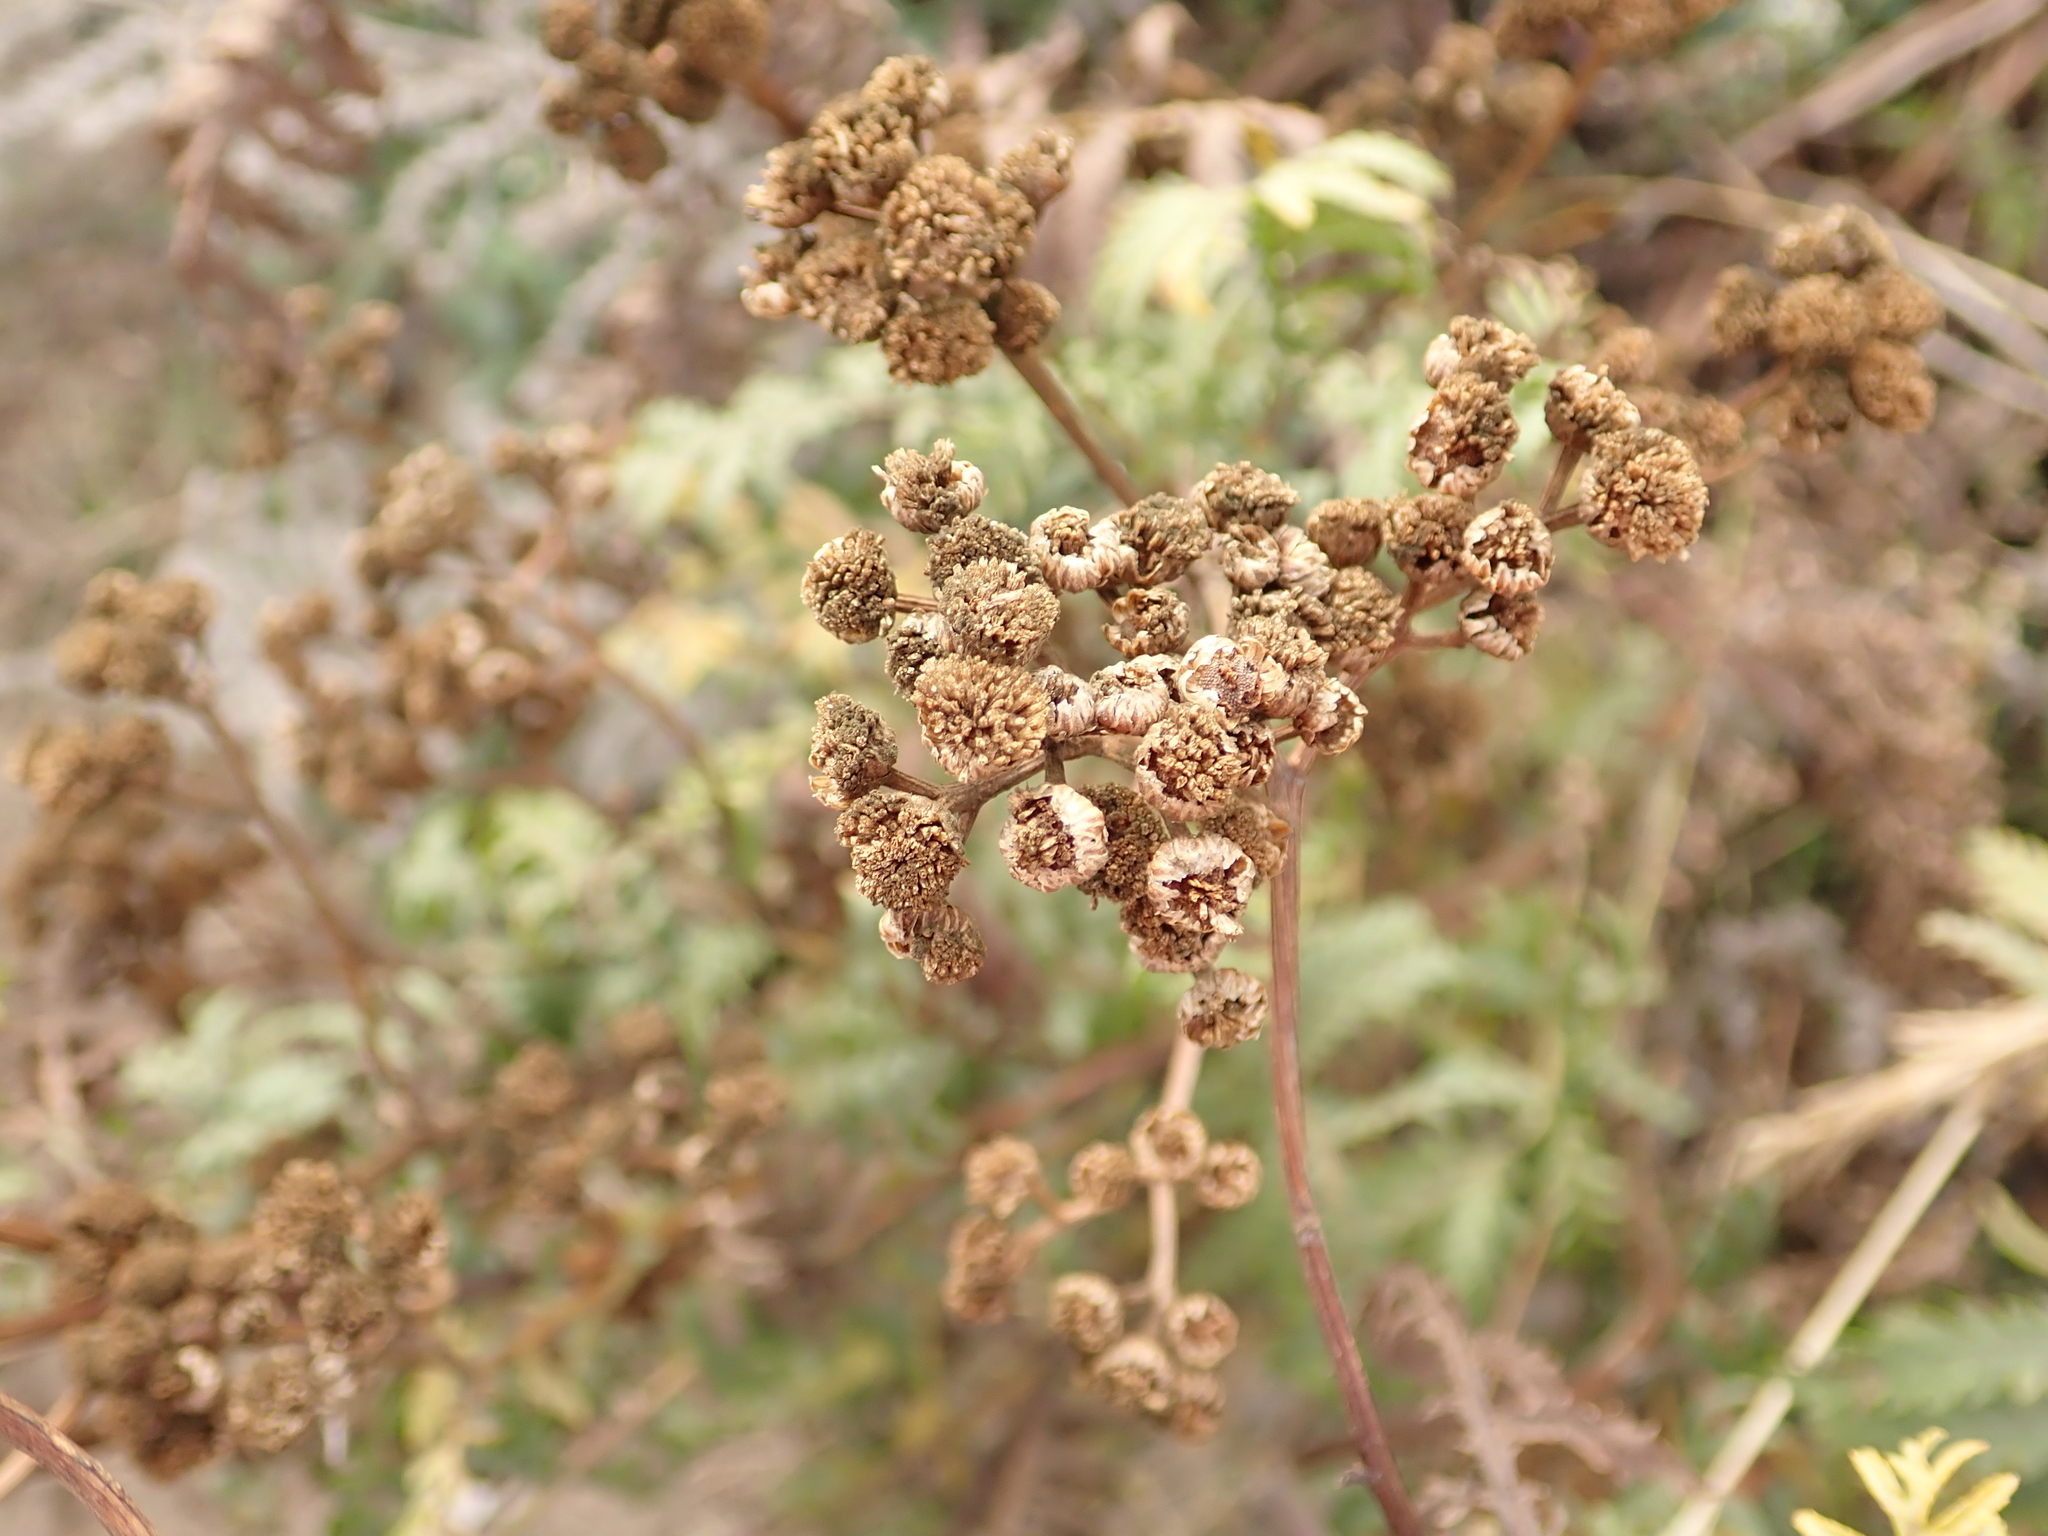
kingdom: Plantae
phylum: Tracheophyta
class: Magnoliopsida
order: Asterales
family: Asteraceae
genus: Tanacetum
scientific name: Tanacetum vulgare
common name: Common tansy
